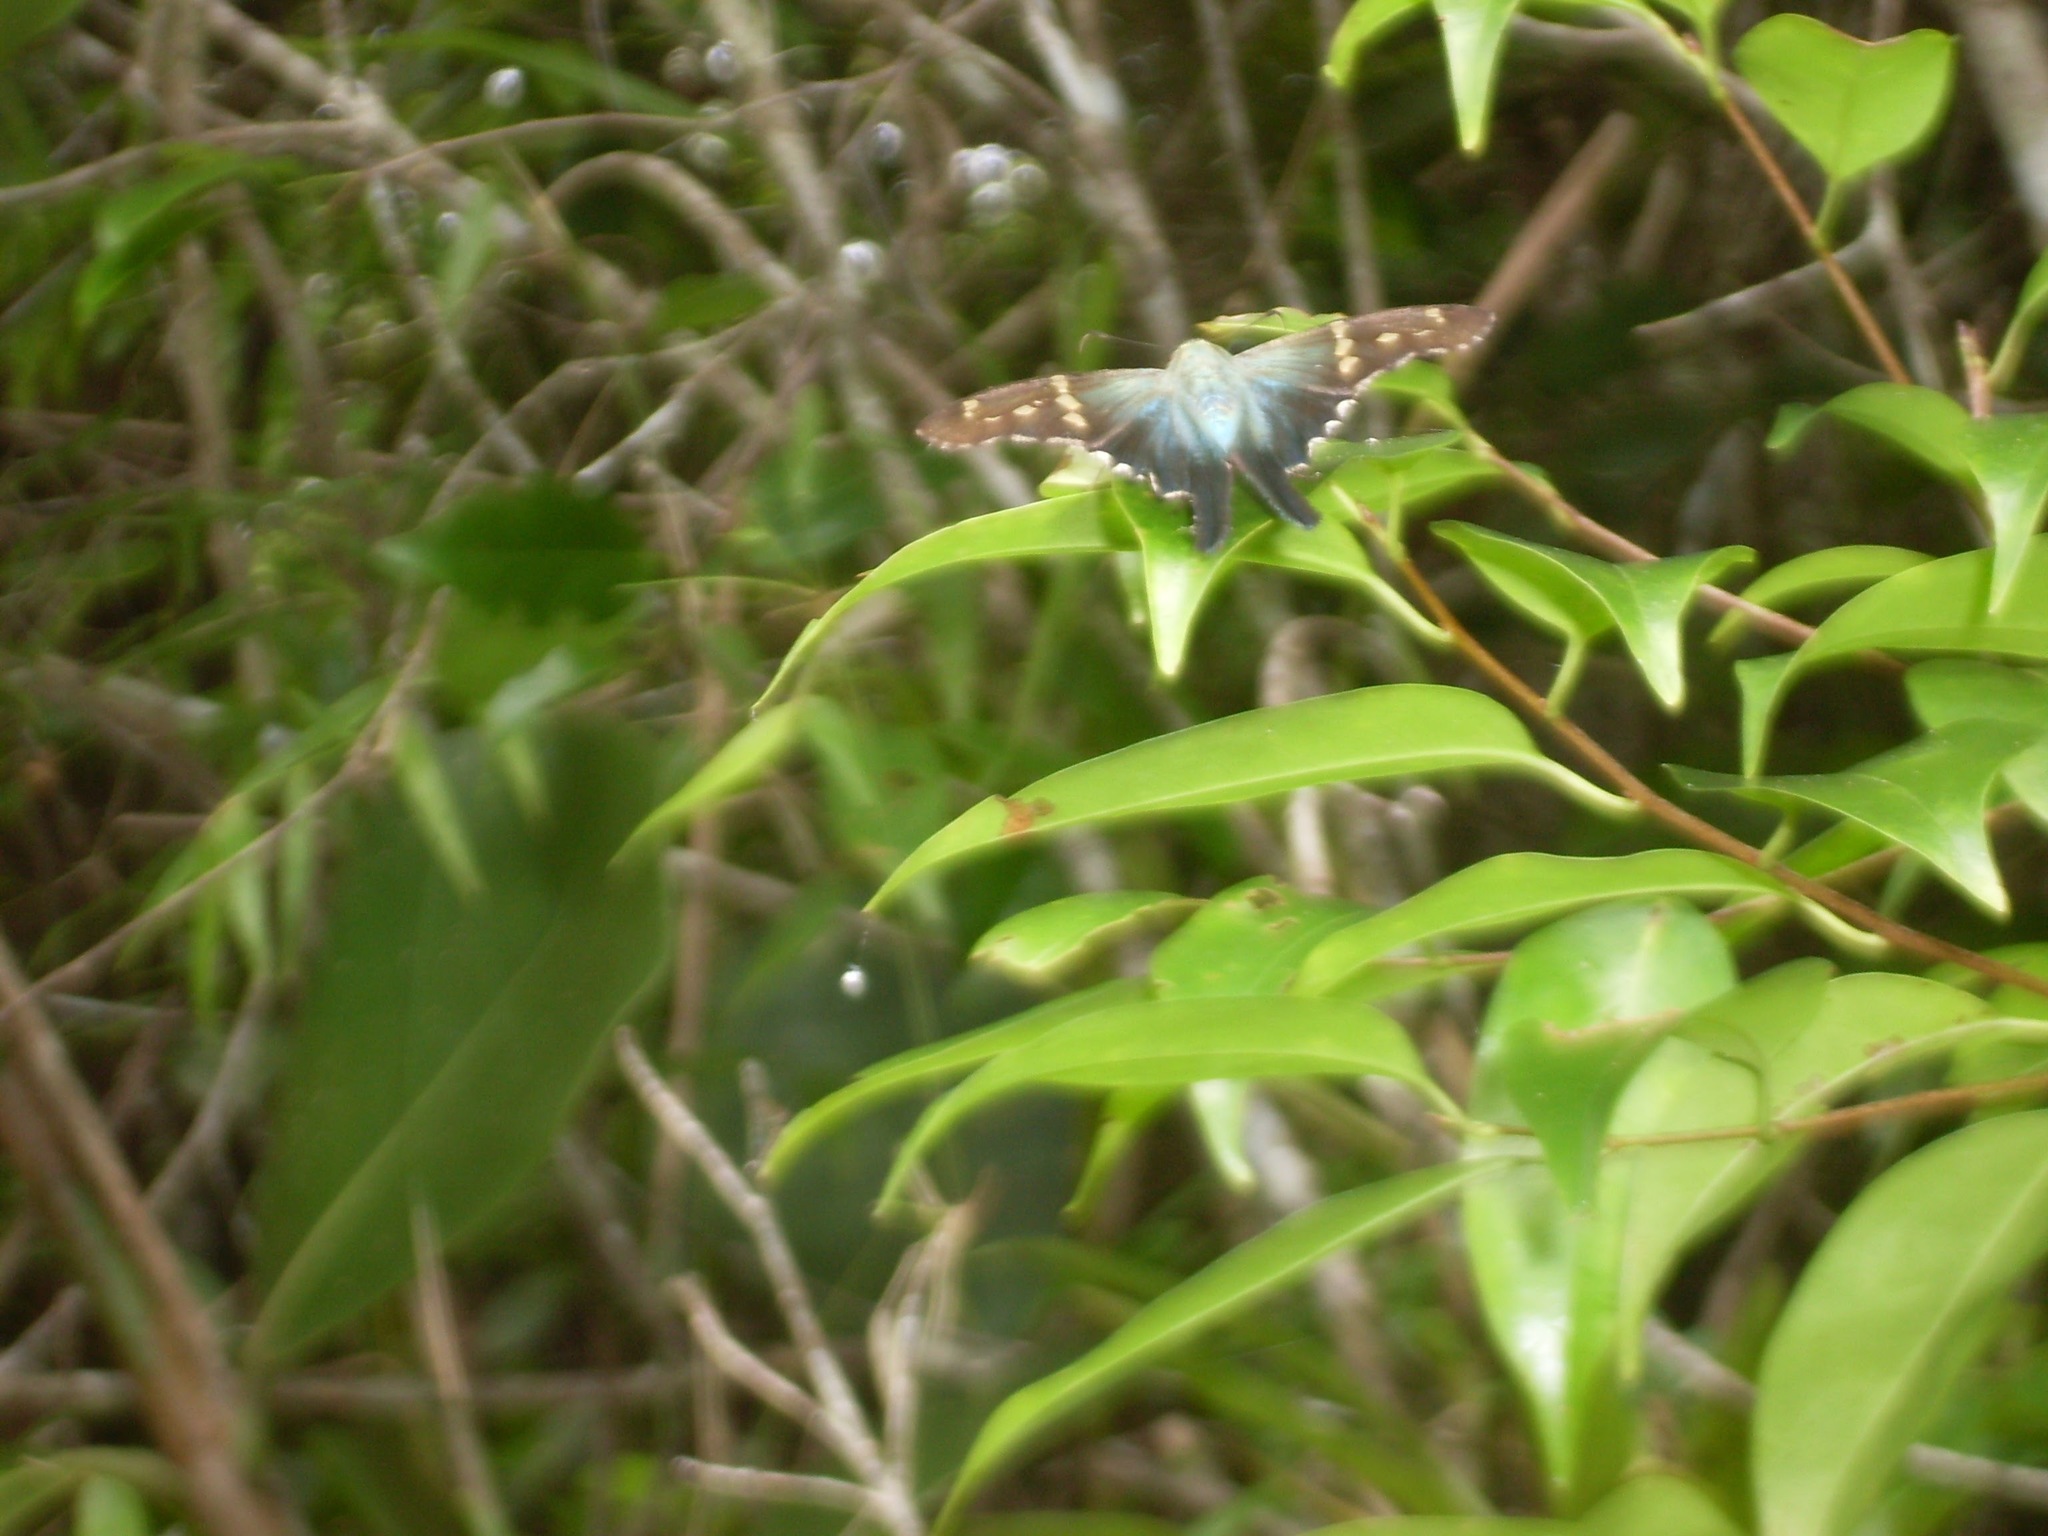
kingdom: Animalia
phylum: Arthropoda
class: Insecta
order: Lepidoptera
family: Hesperiidae
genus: Urbanus
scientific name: Urbanus proteus
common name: Long-tailed skipper
